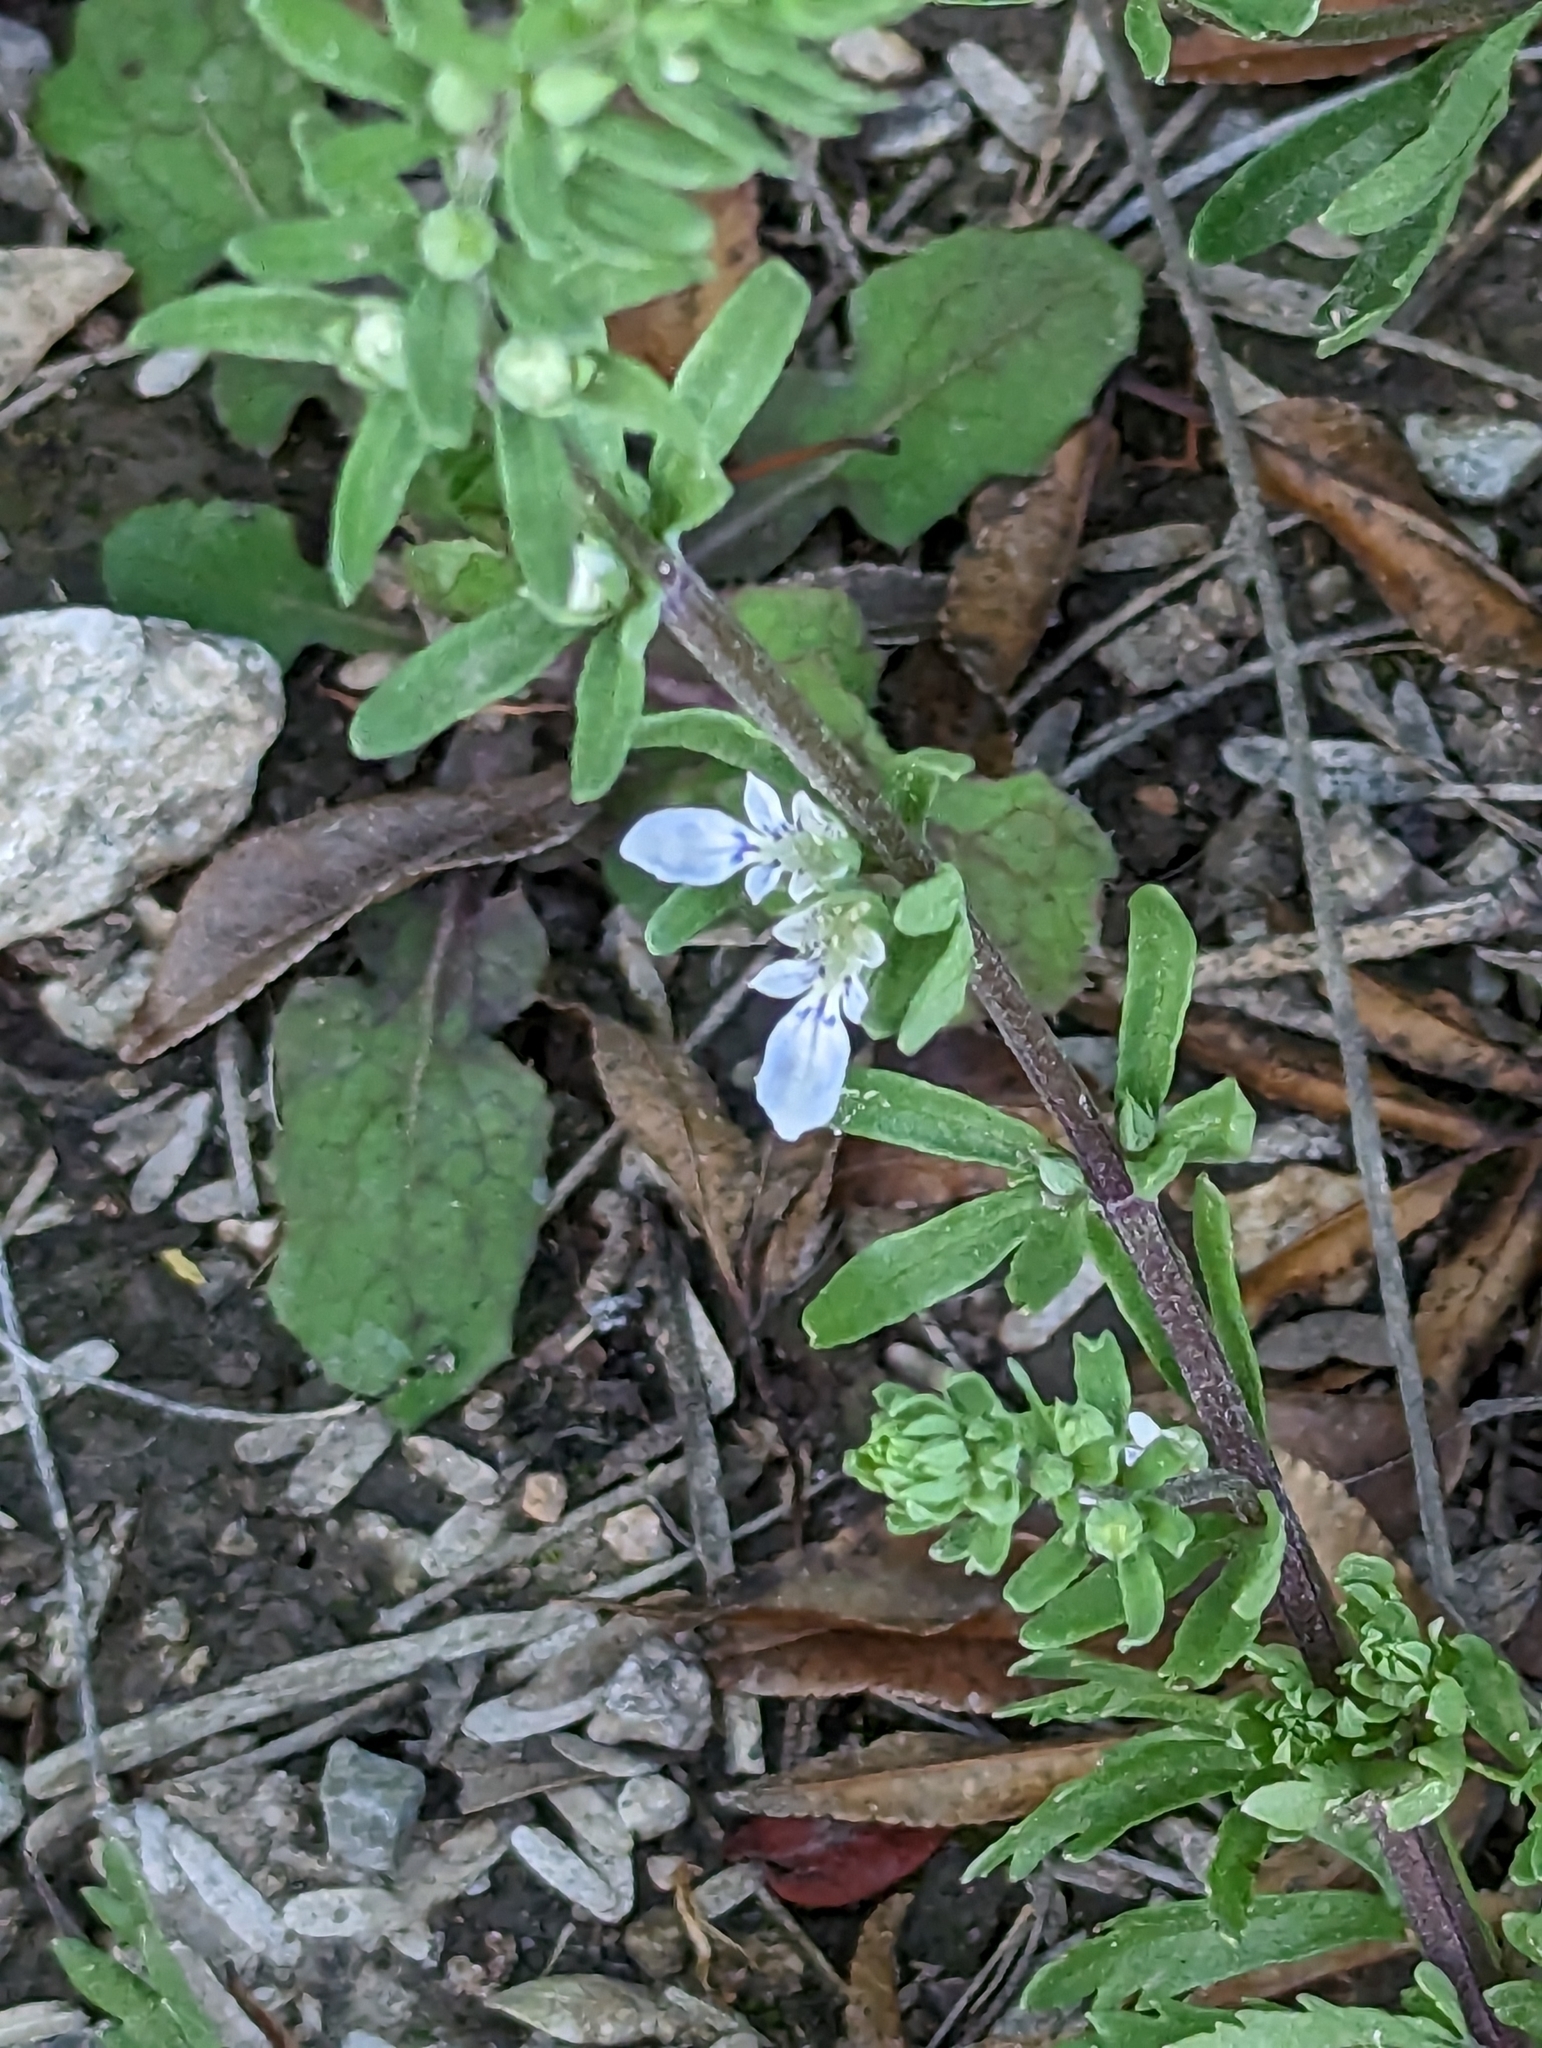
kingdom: Plantae
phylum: Tracheophyta
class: Magnoliopsida
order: Lamiales
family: Lamiaceae
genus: Teucrium
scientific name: Teucrium cubense
